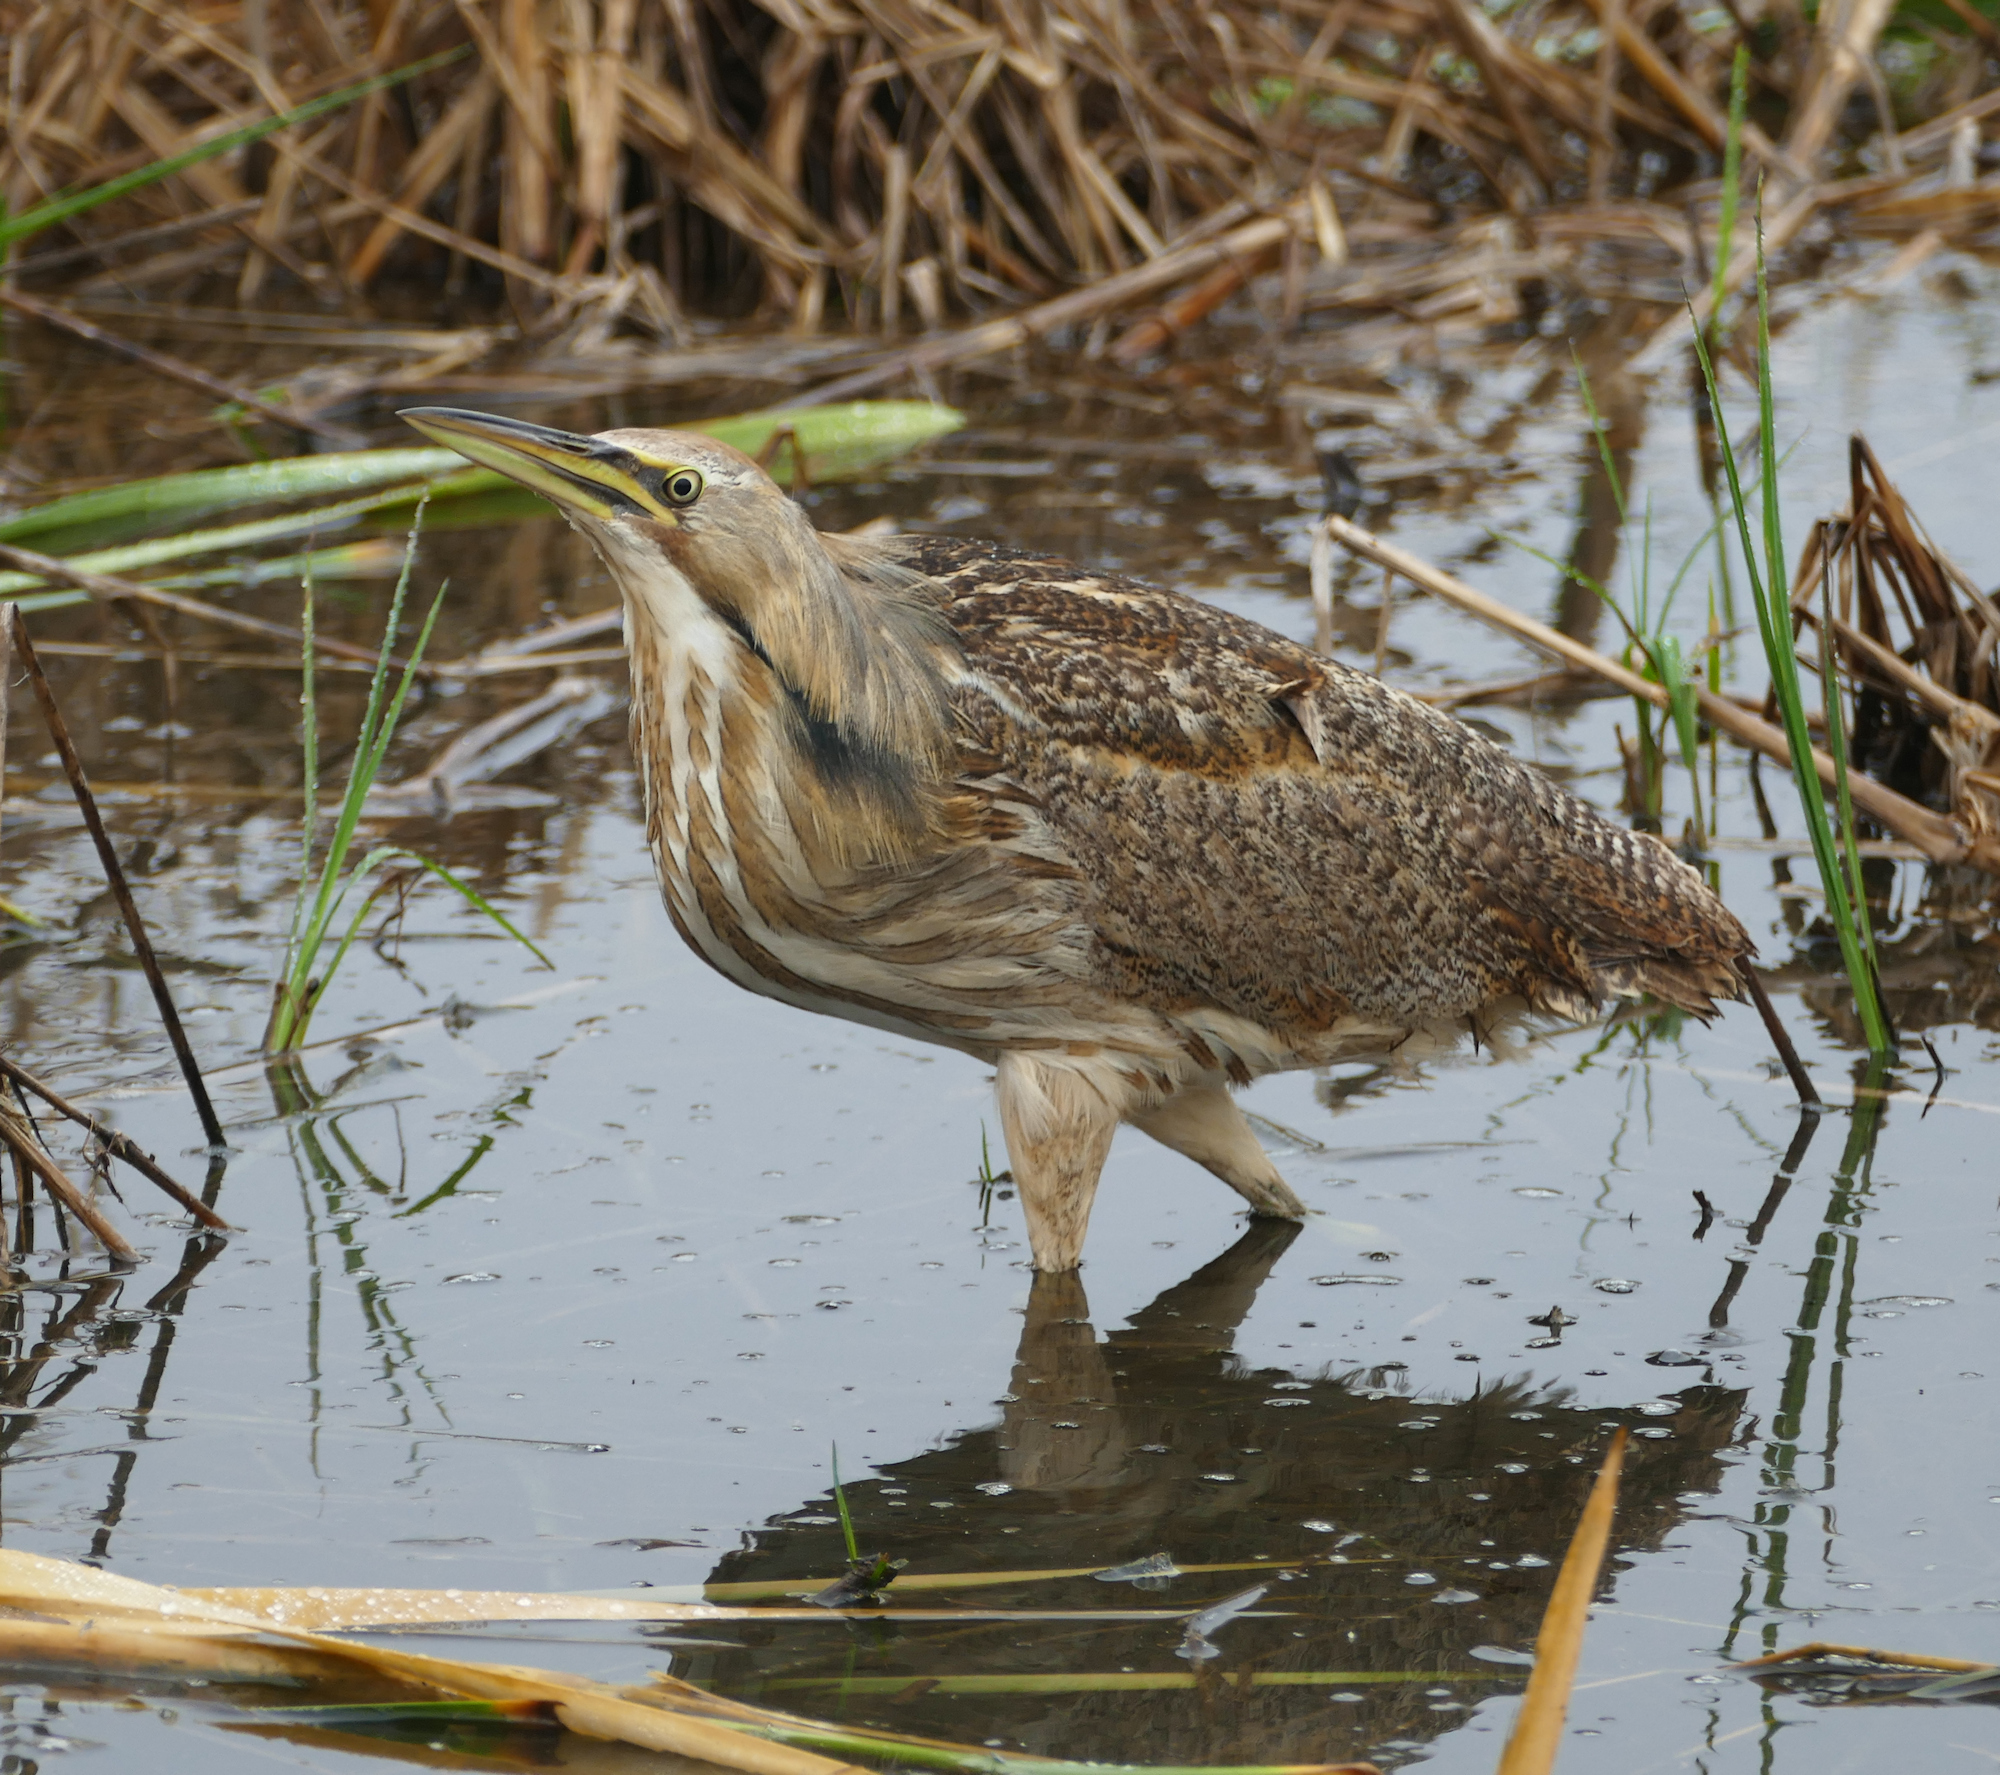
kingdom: Animalia
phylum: Chordata
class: Aves
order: Pelecaniformes
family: Ardeidae
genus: Botaurus
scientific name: Botaurus lentiginosus
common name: American bittern
